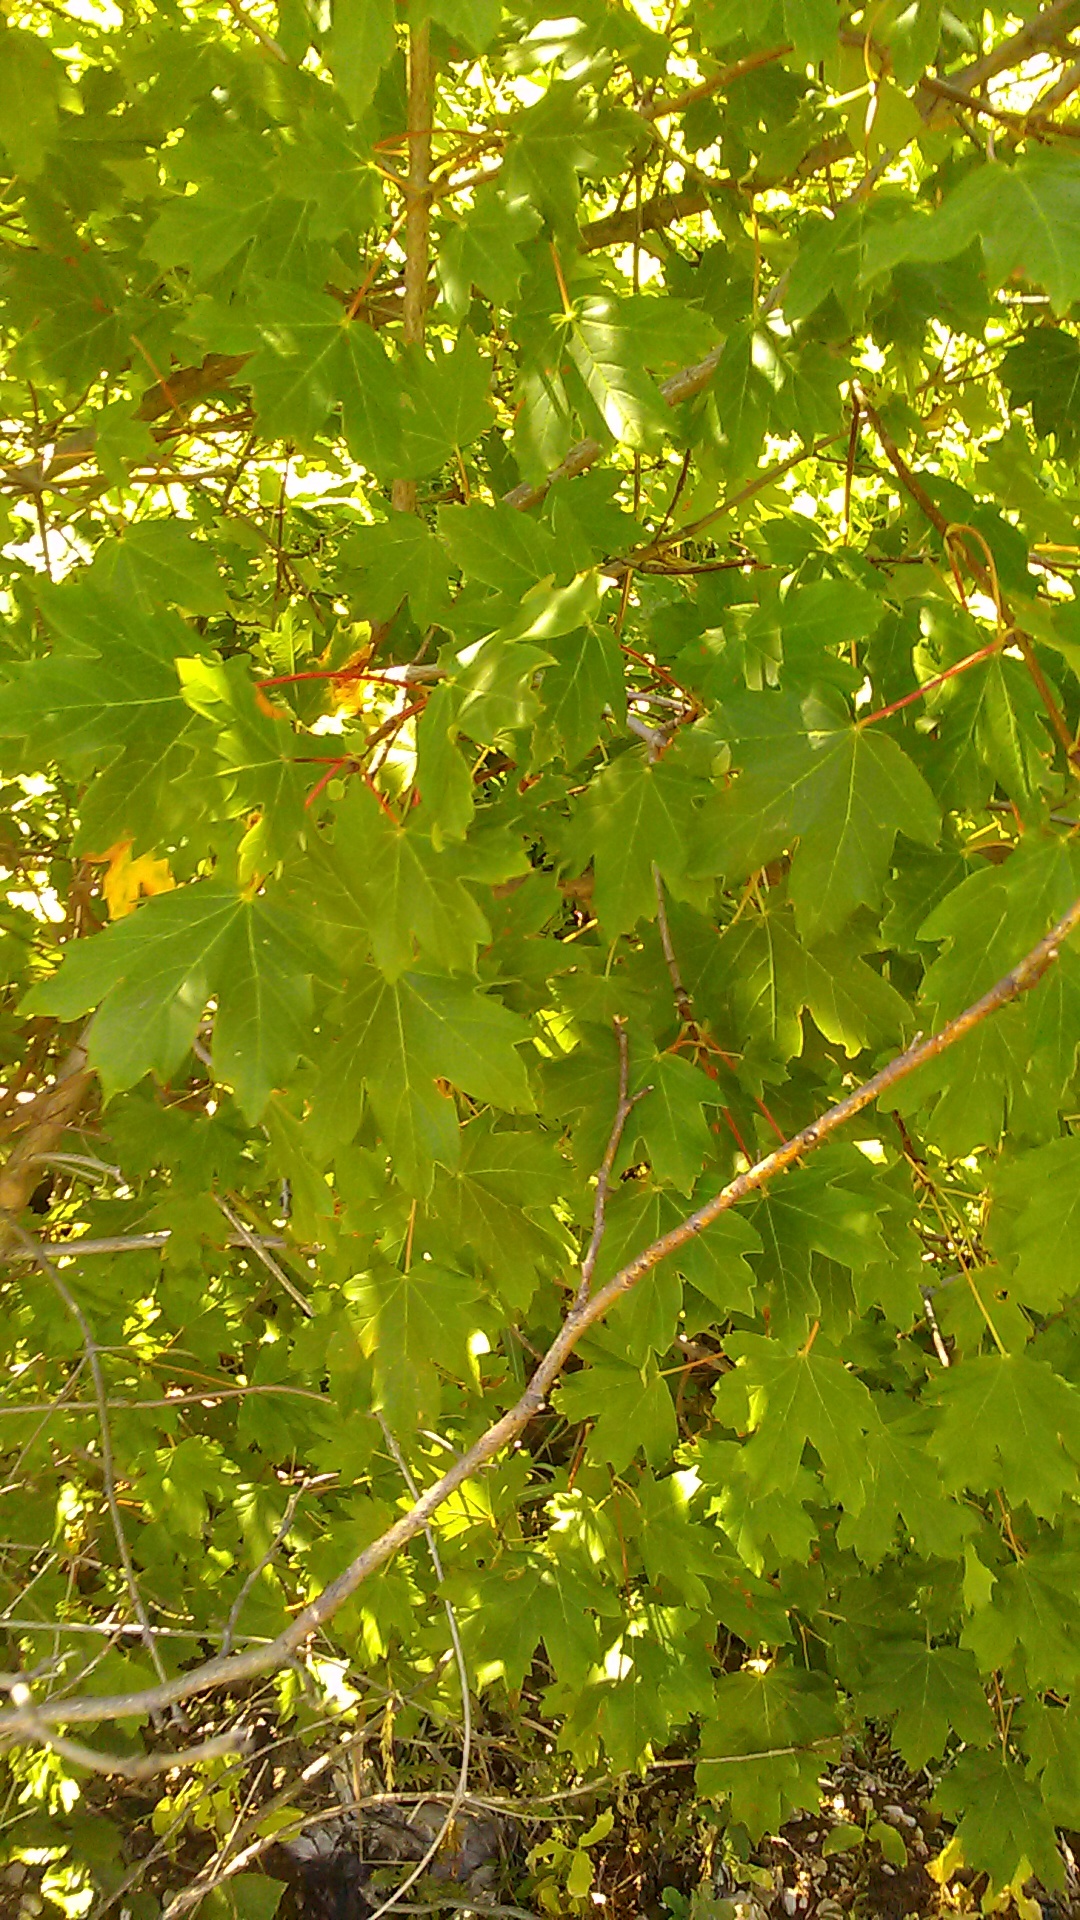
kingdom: Plantae
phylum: Tracheophyta
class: Magnoliopsida
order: Sapindales
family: Sapindaceae
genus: Acer
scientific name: Acer hyrcanum
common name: Balkan maple
